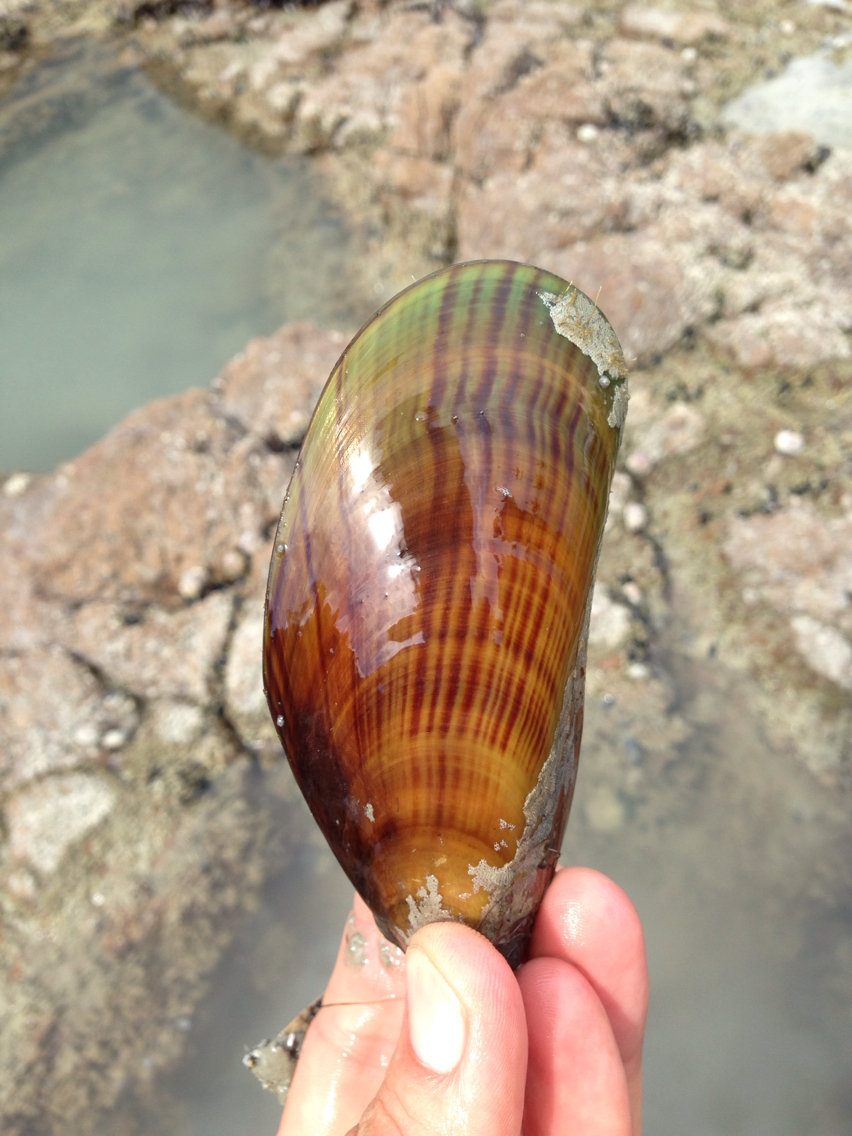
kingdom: Animalia
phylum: Mollusca
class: Bivalvia
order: Mytilida
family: Mytilidae
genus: Perna
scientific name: Perna canaliculus
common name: New zealand greenshelltm
